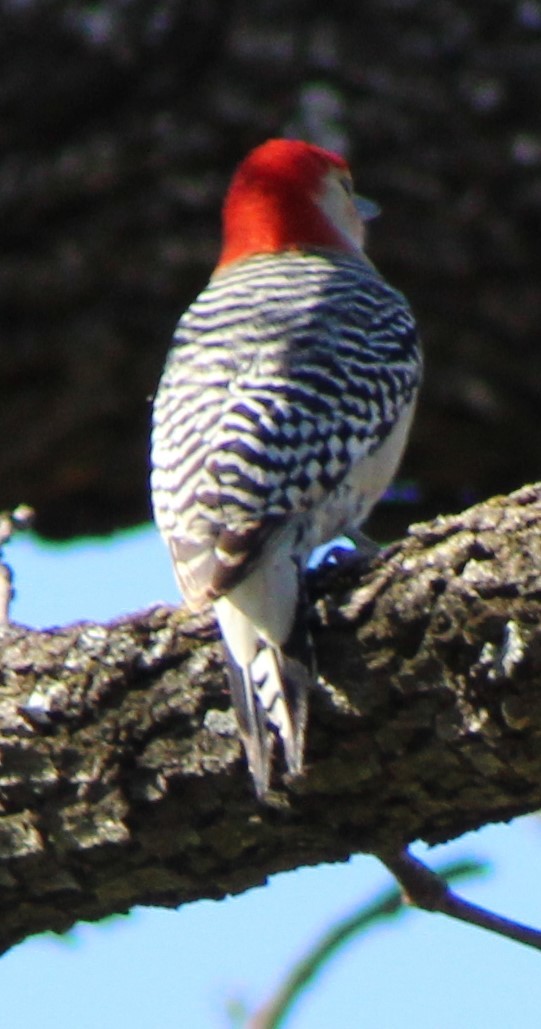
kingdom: Animalia
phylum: Chordata
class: Aves
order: Piciformes
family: Picidae
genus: Melanerpes
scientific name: Melanerpes carolinus
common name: Red-bellied woodpecker
